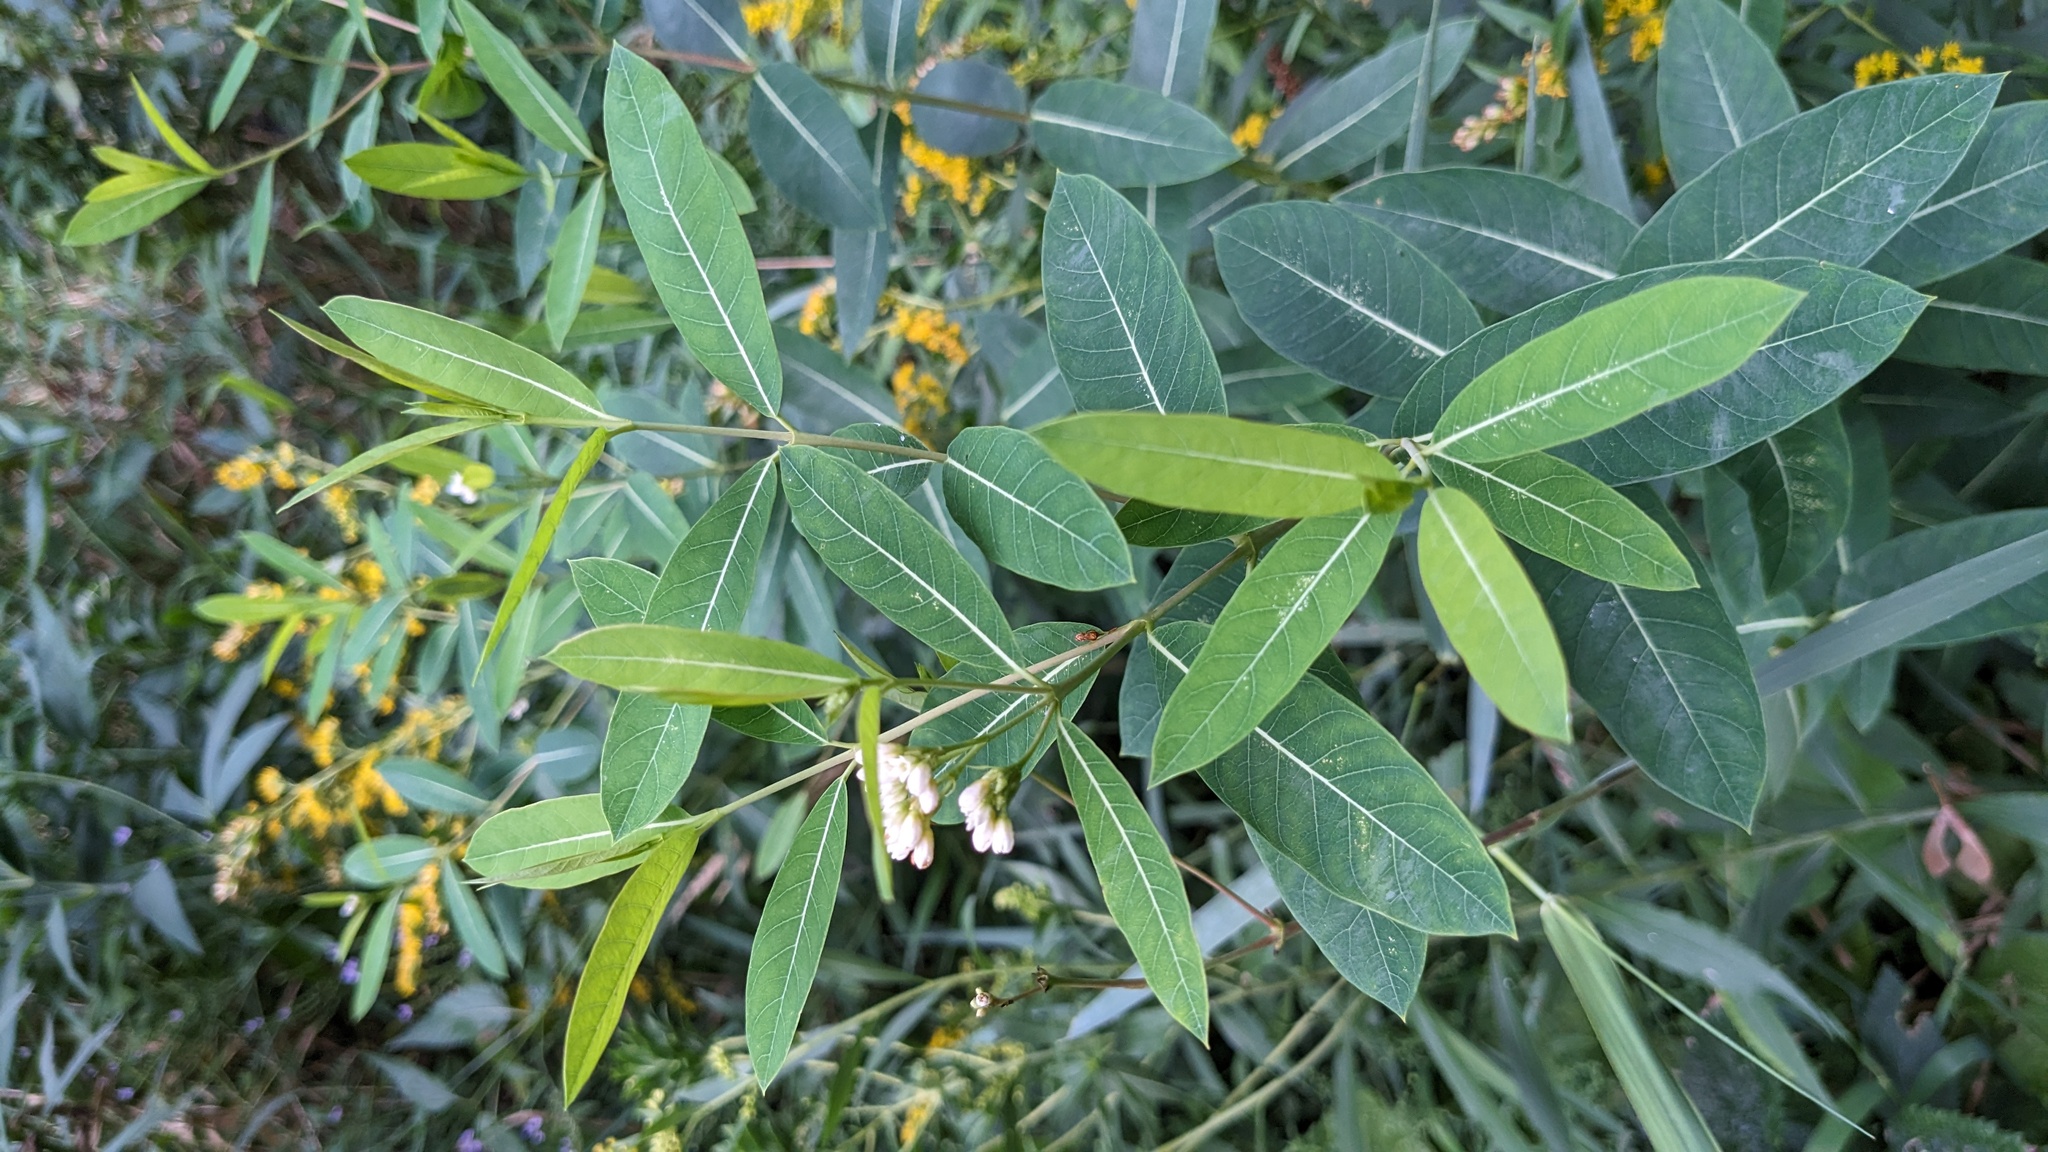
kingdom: Plantae
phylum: Tracheophyta
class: Magnoliopsida
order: Gentianales
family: Apocynaceae
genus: Apocynum
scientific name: Apocynum cannabinum
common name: Hemp dogbane
